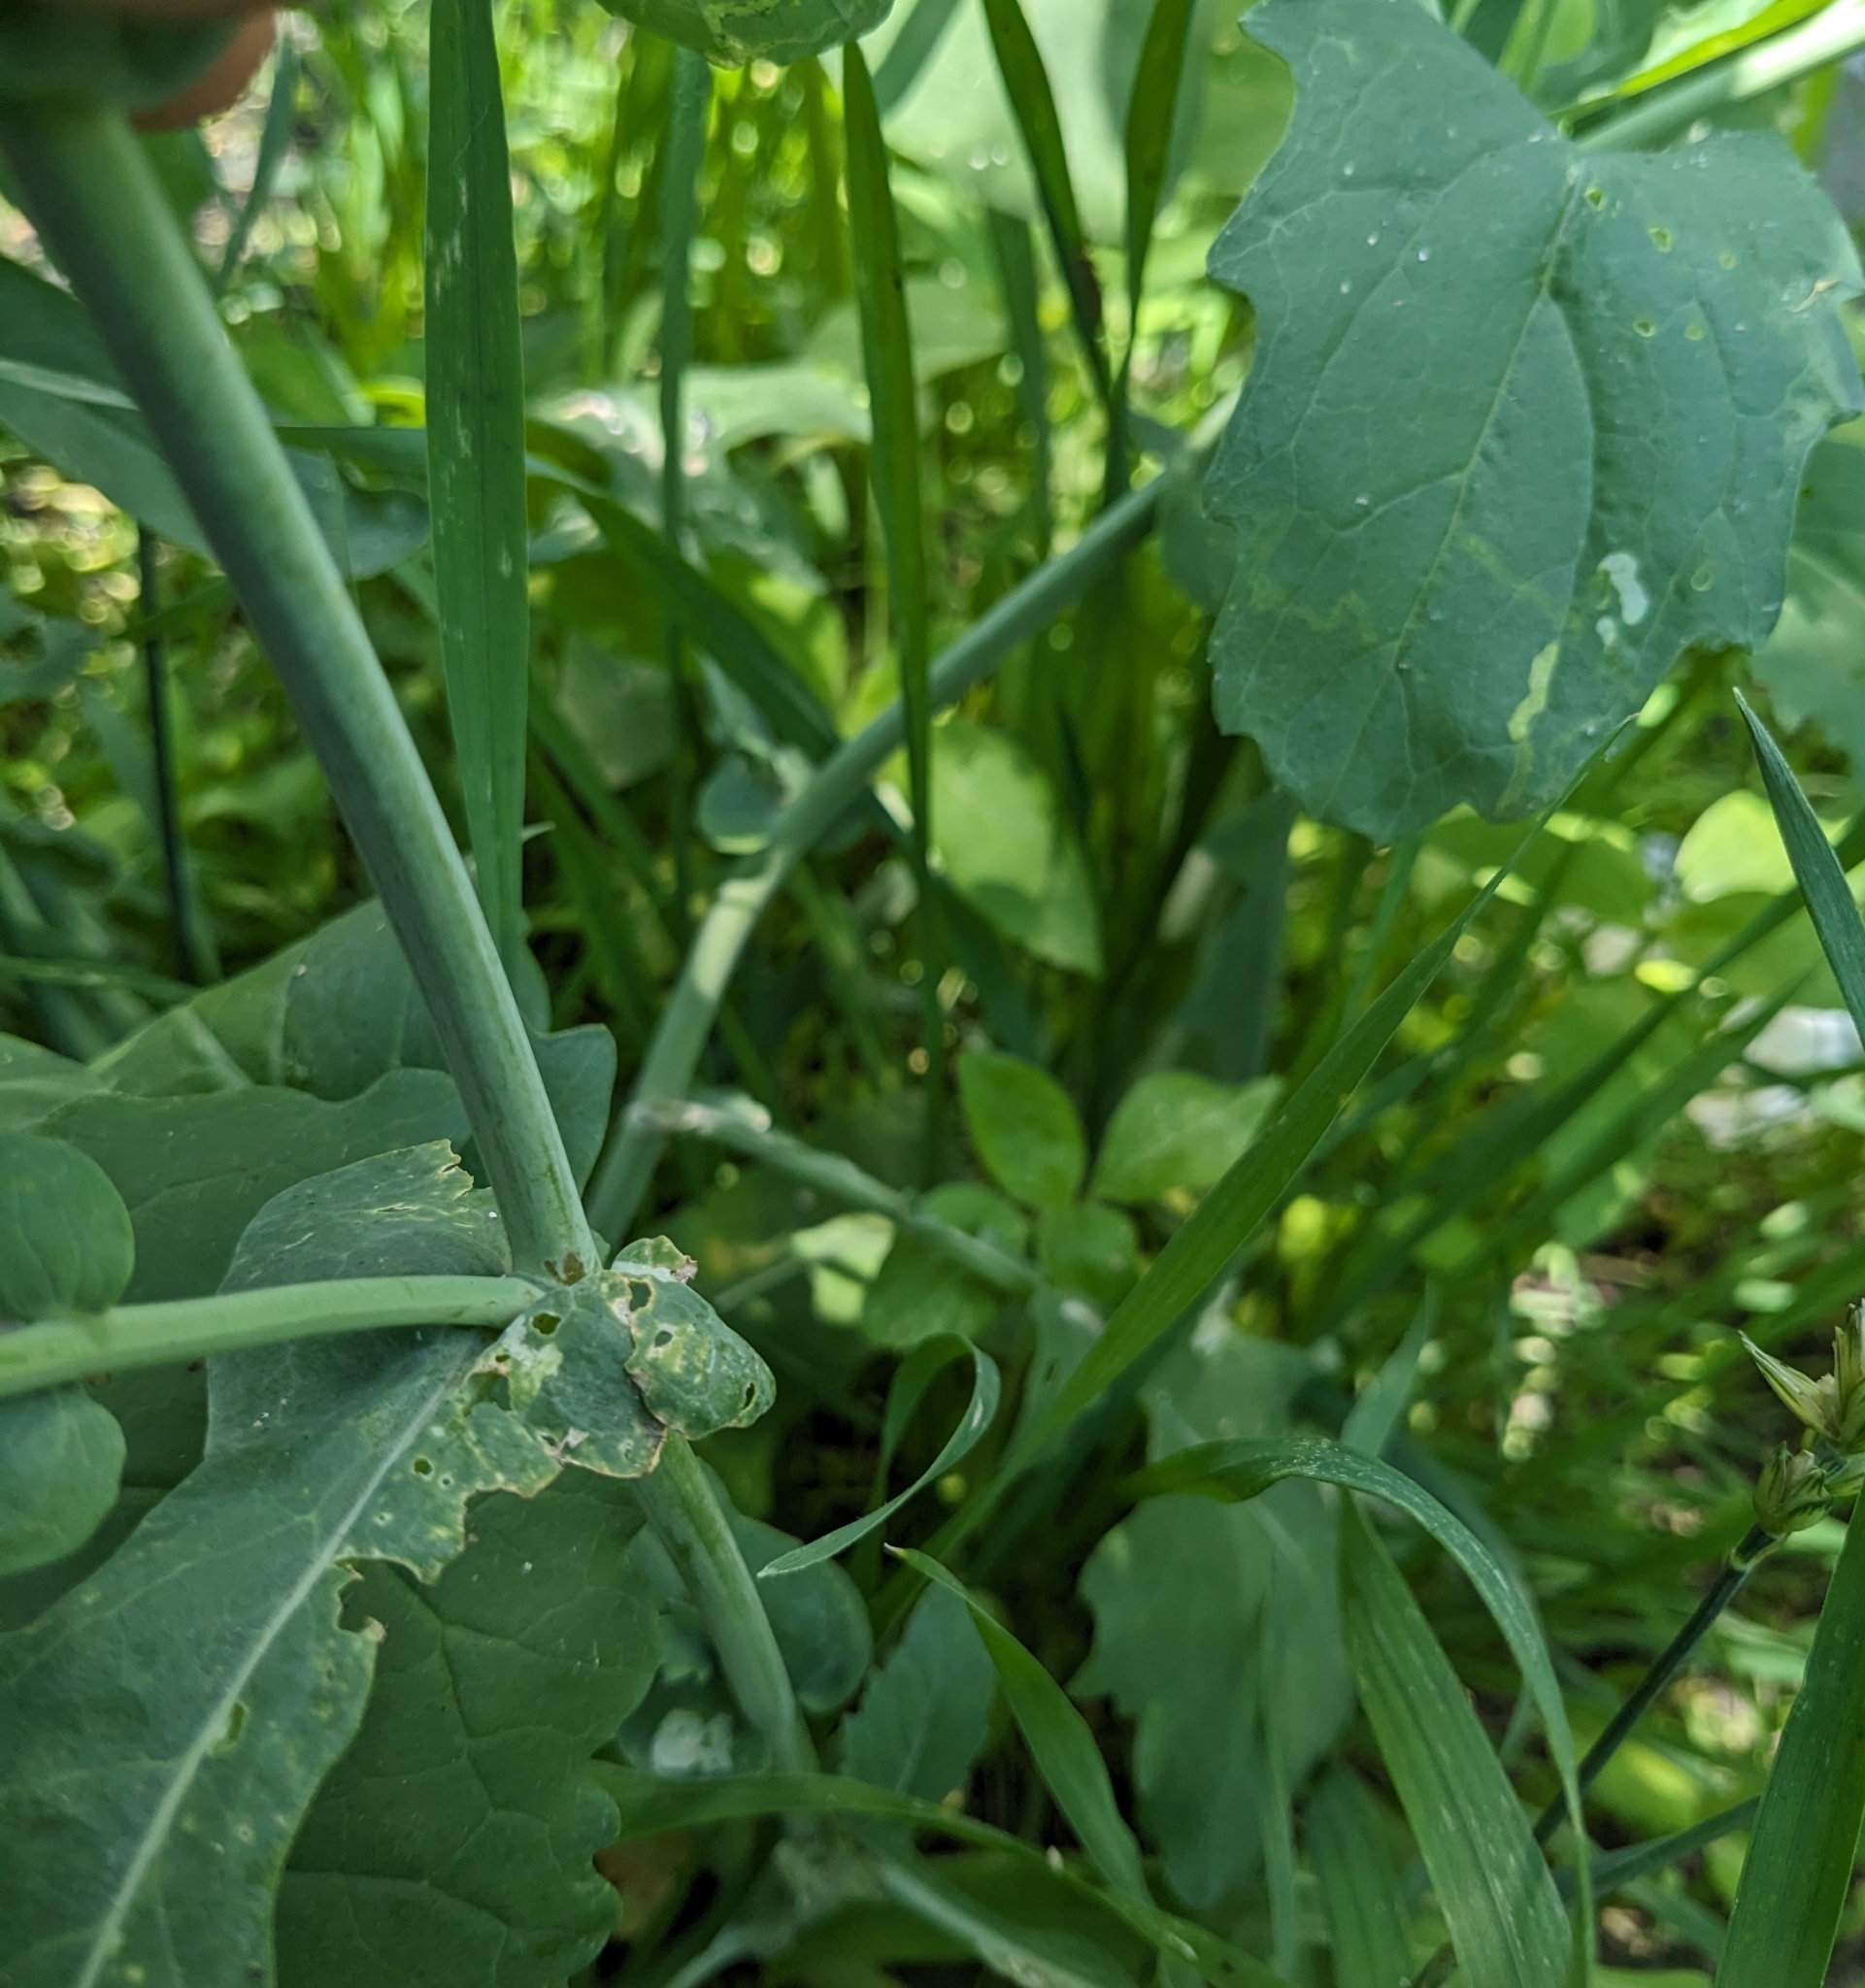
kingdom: Plantae
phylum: Tracheophyta
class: Magnoliopsida
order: Brassicales
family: Brassicaceae
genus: Brassica
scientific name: Brassica rapa
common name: Field mustard
